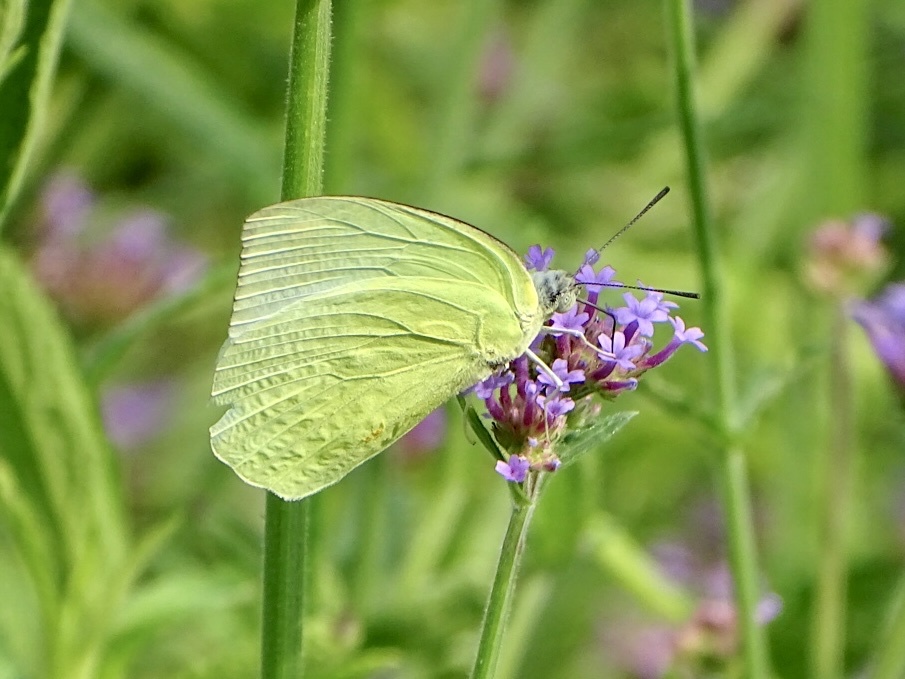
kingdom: Animalia
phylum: Arthropoda
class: Insecta
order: Lepidoptera
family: Pieridae
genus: Catopsilia
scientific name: Catopsilia pomona
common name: Common emigrant
